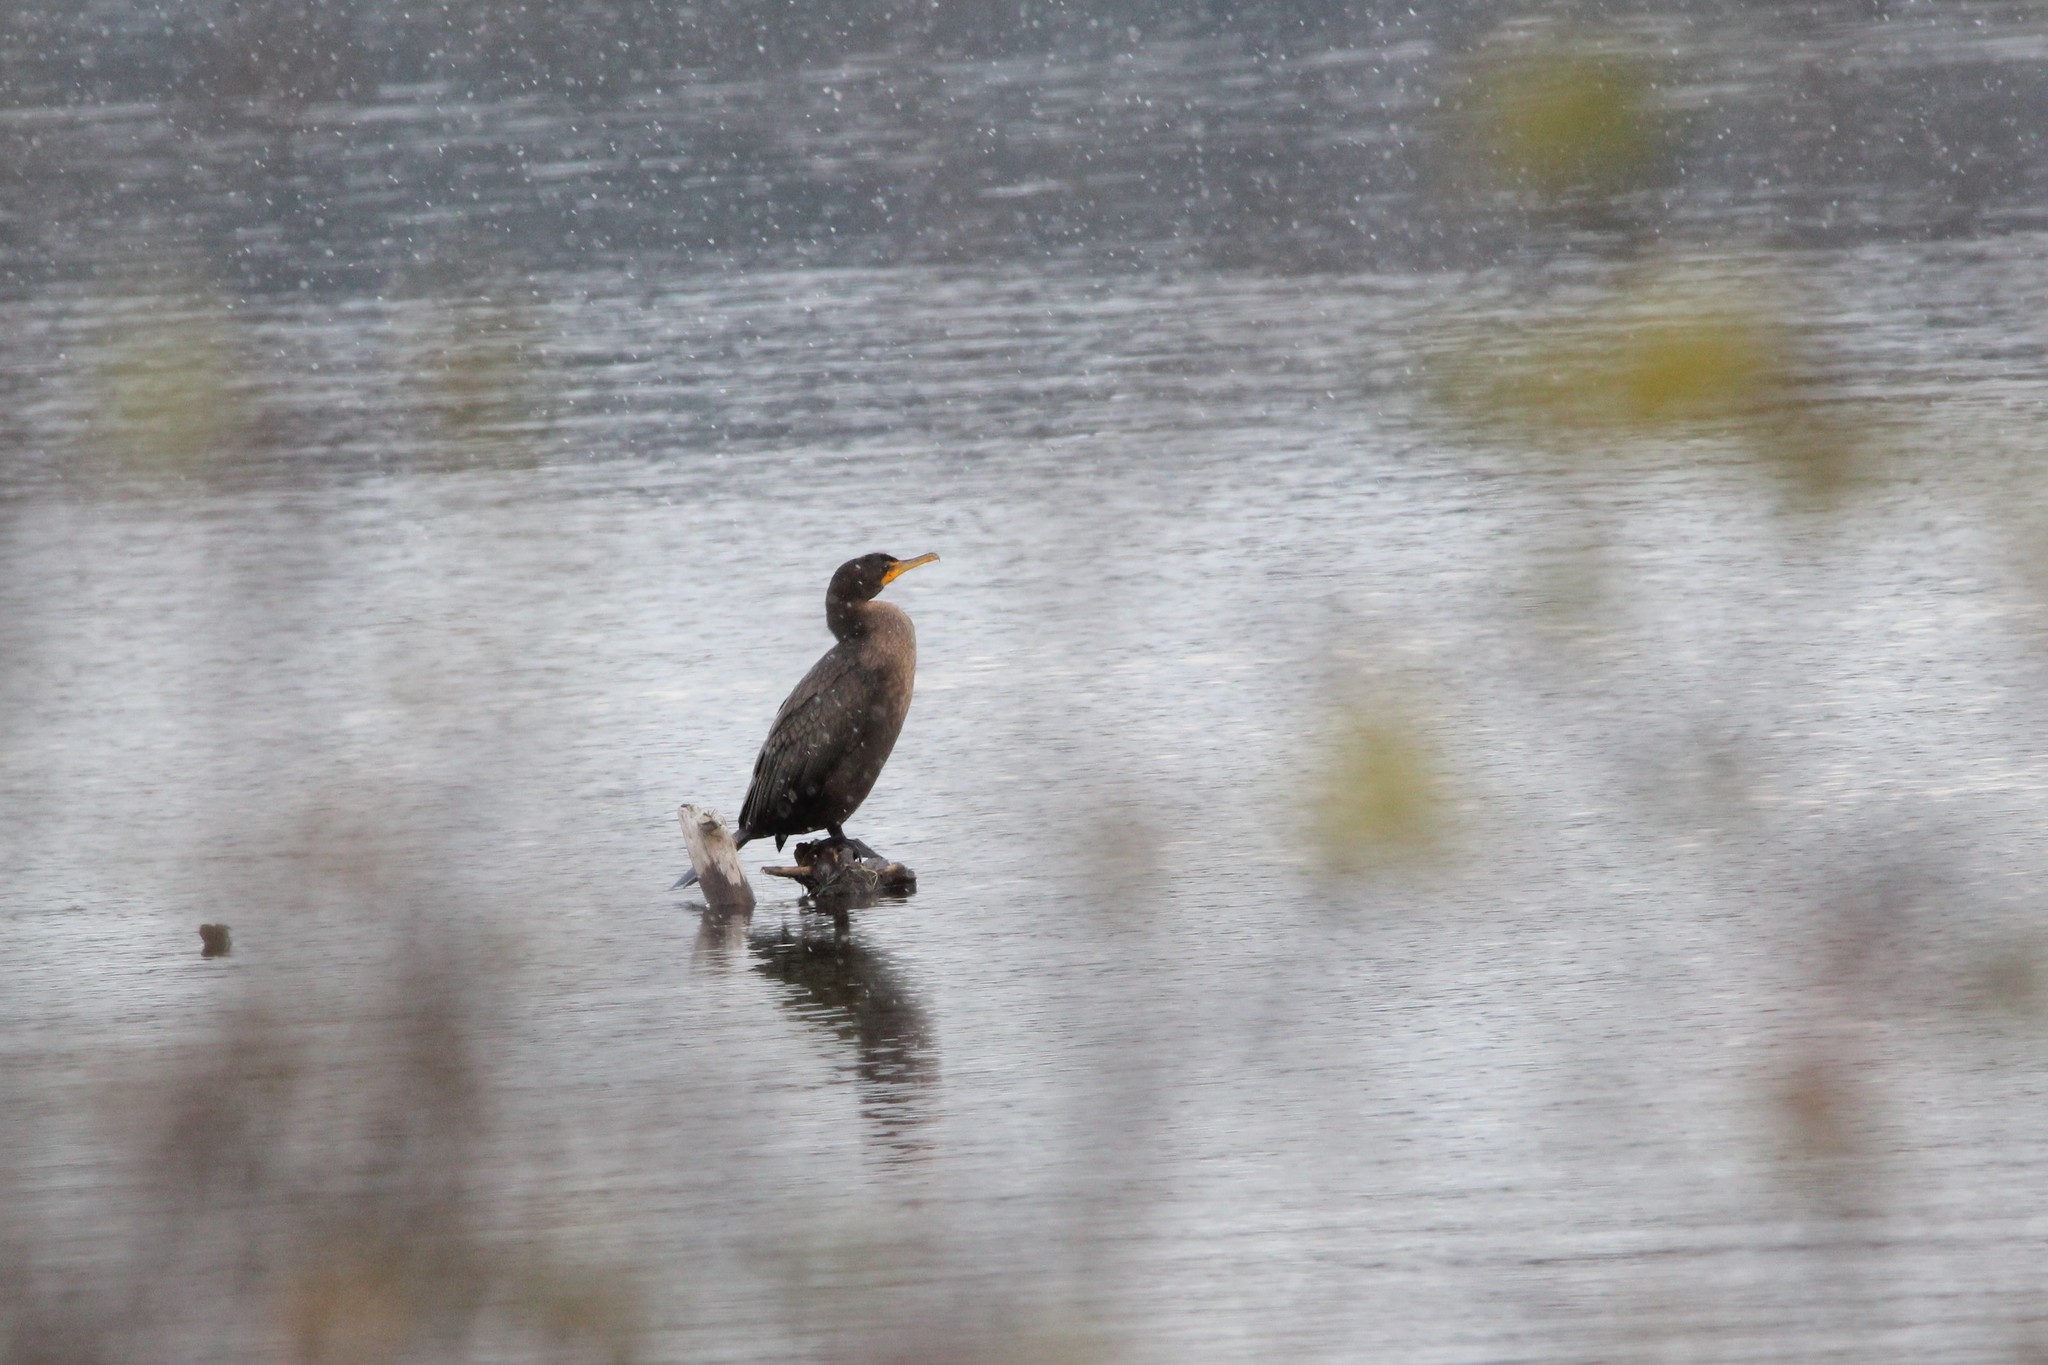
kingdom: Animalia
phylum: Chordata
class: Aves
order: Suliformes
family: Phalacrocoracidae
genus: Phalacrocorax
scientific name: Phalacrocorax auritus
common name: Double-crested cormorant
